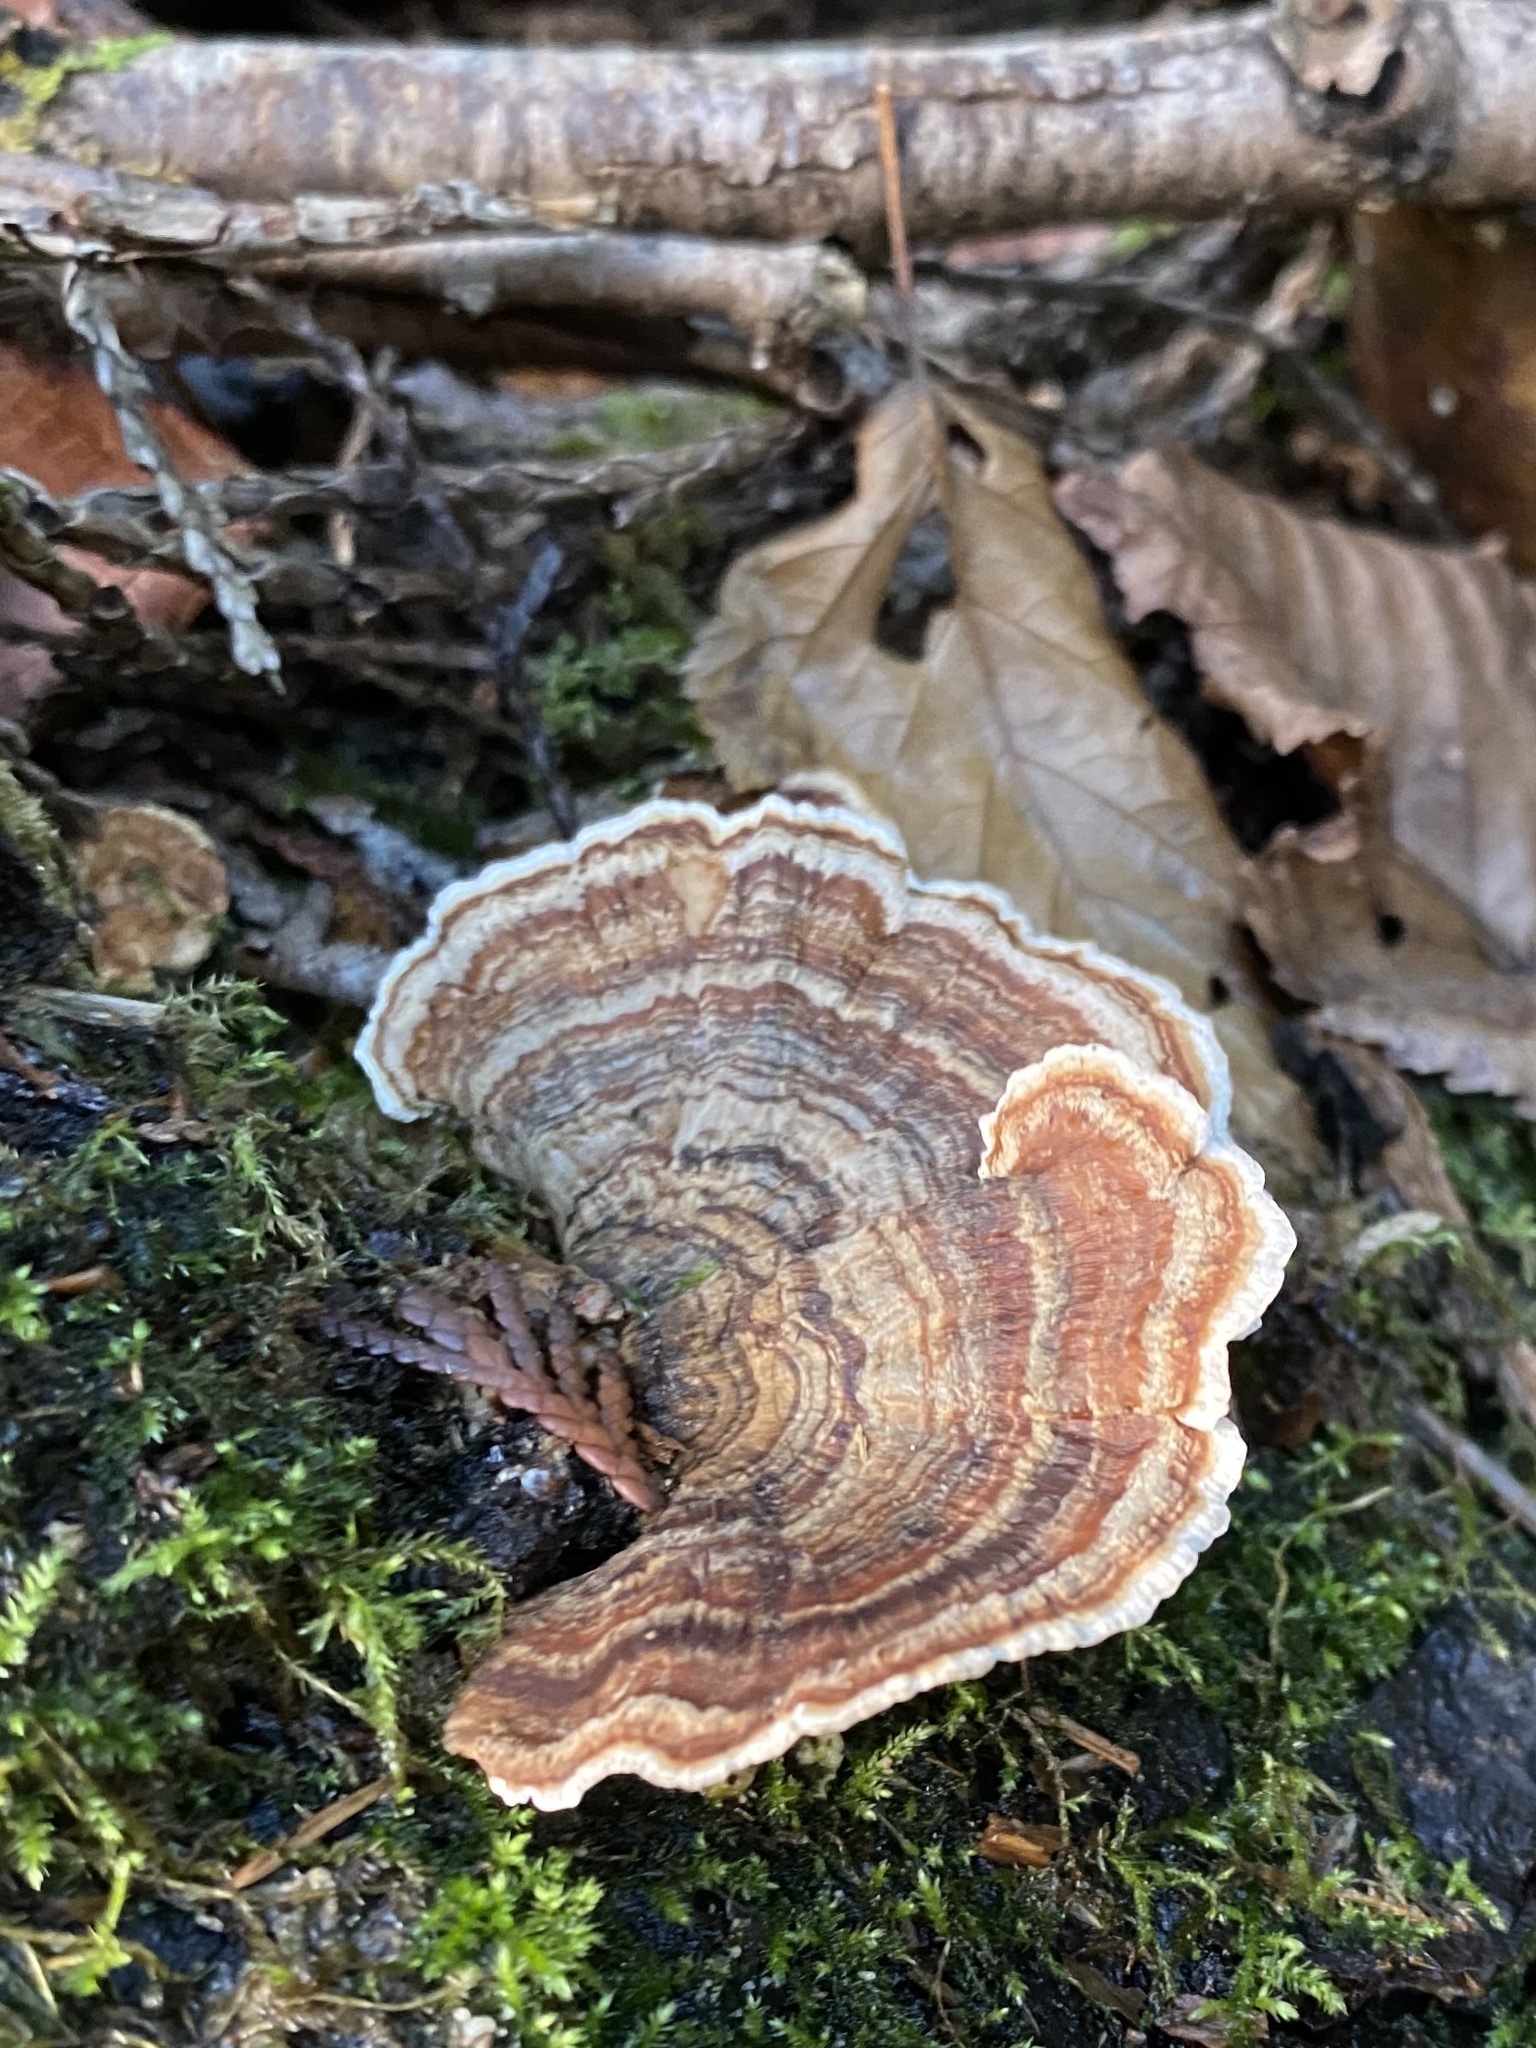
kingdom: Fungi
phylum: Basidiomycota
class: Agaricomycetes
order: Polyporales
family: Polyporaceae
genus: Trametes
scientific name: Trametes versicolor
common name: Turkeytail
